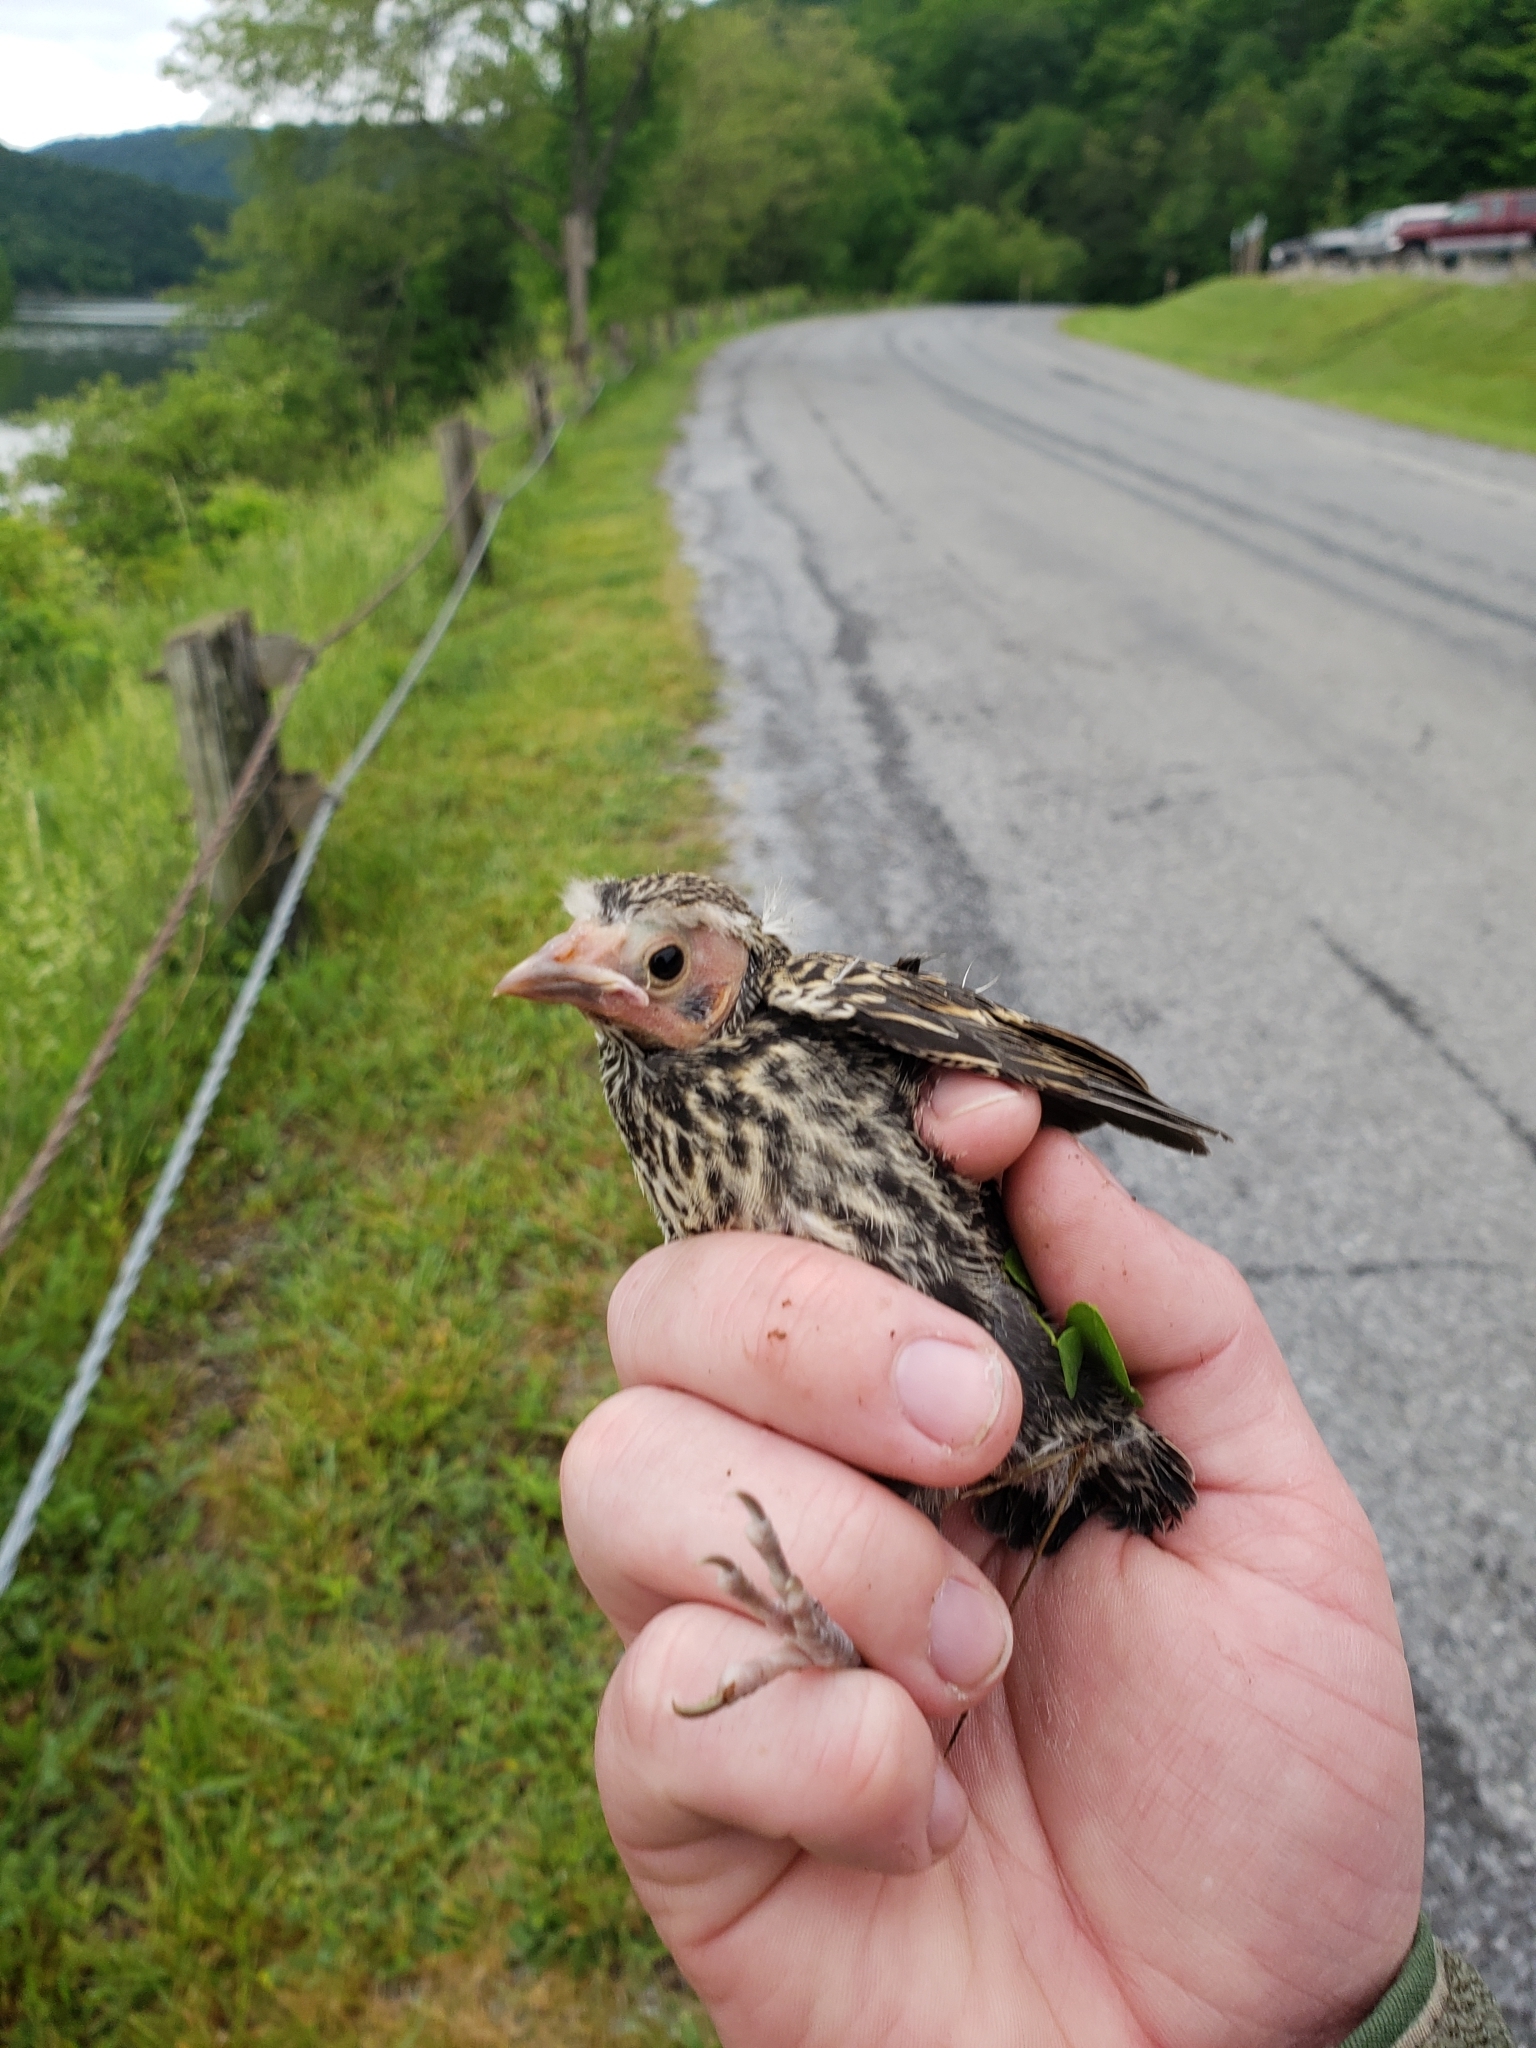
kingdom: Animalia
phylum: Chordata
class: Aves
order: Passeriformes
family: Icteridae
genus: Agelaius
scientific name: Agelaius phoeniceus
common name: Red-winged blackbird
